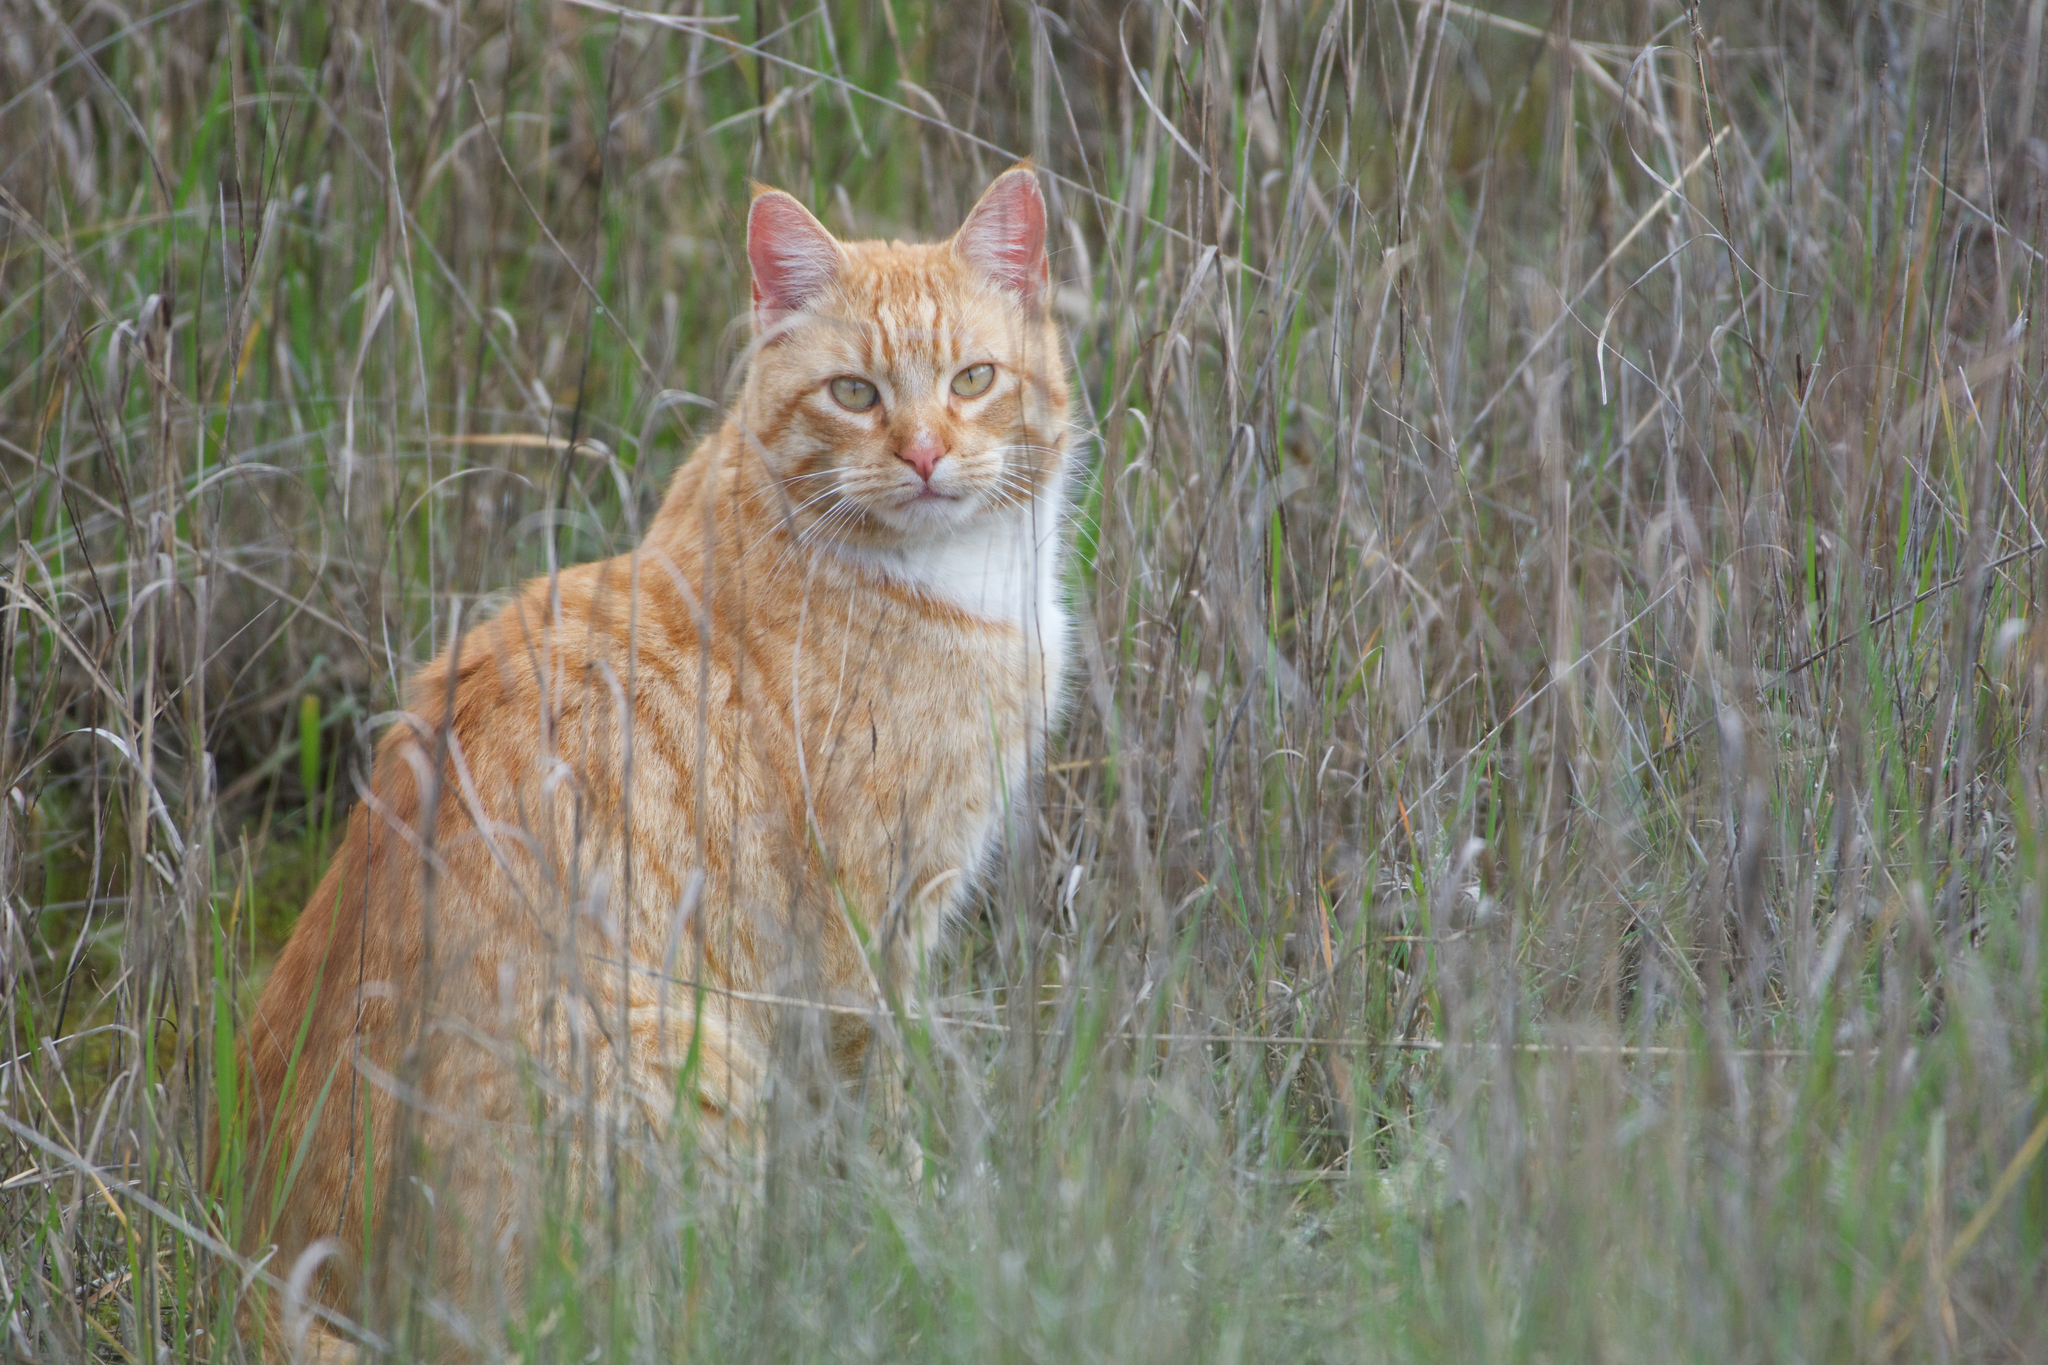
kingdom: Animalia
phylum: Chordata
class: Mammalia
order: Carnivora
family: Felidae
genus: Felis
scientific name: Felis catus
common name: Domestic cat
